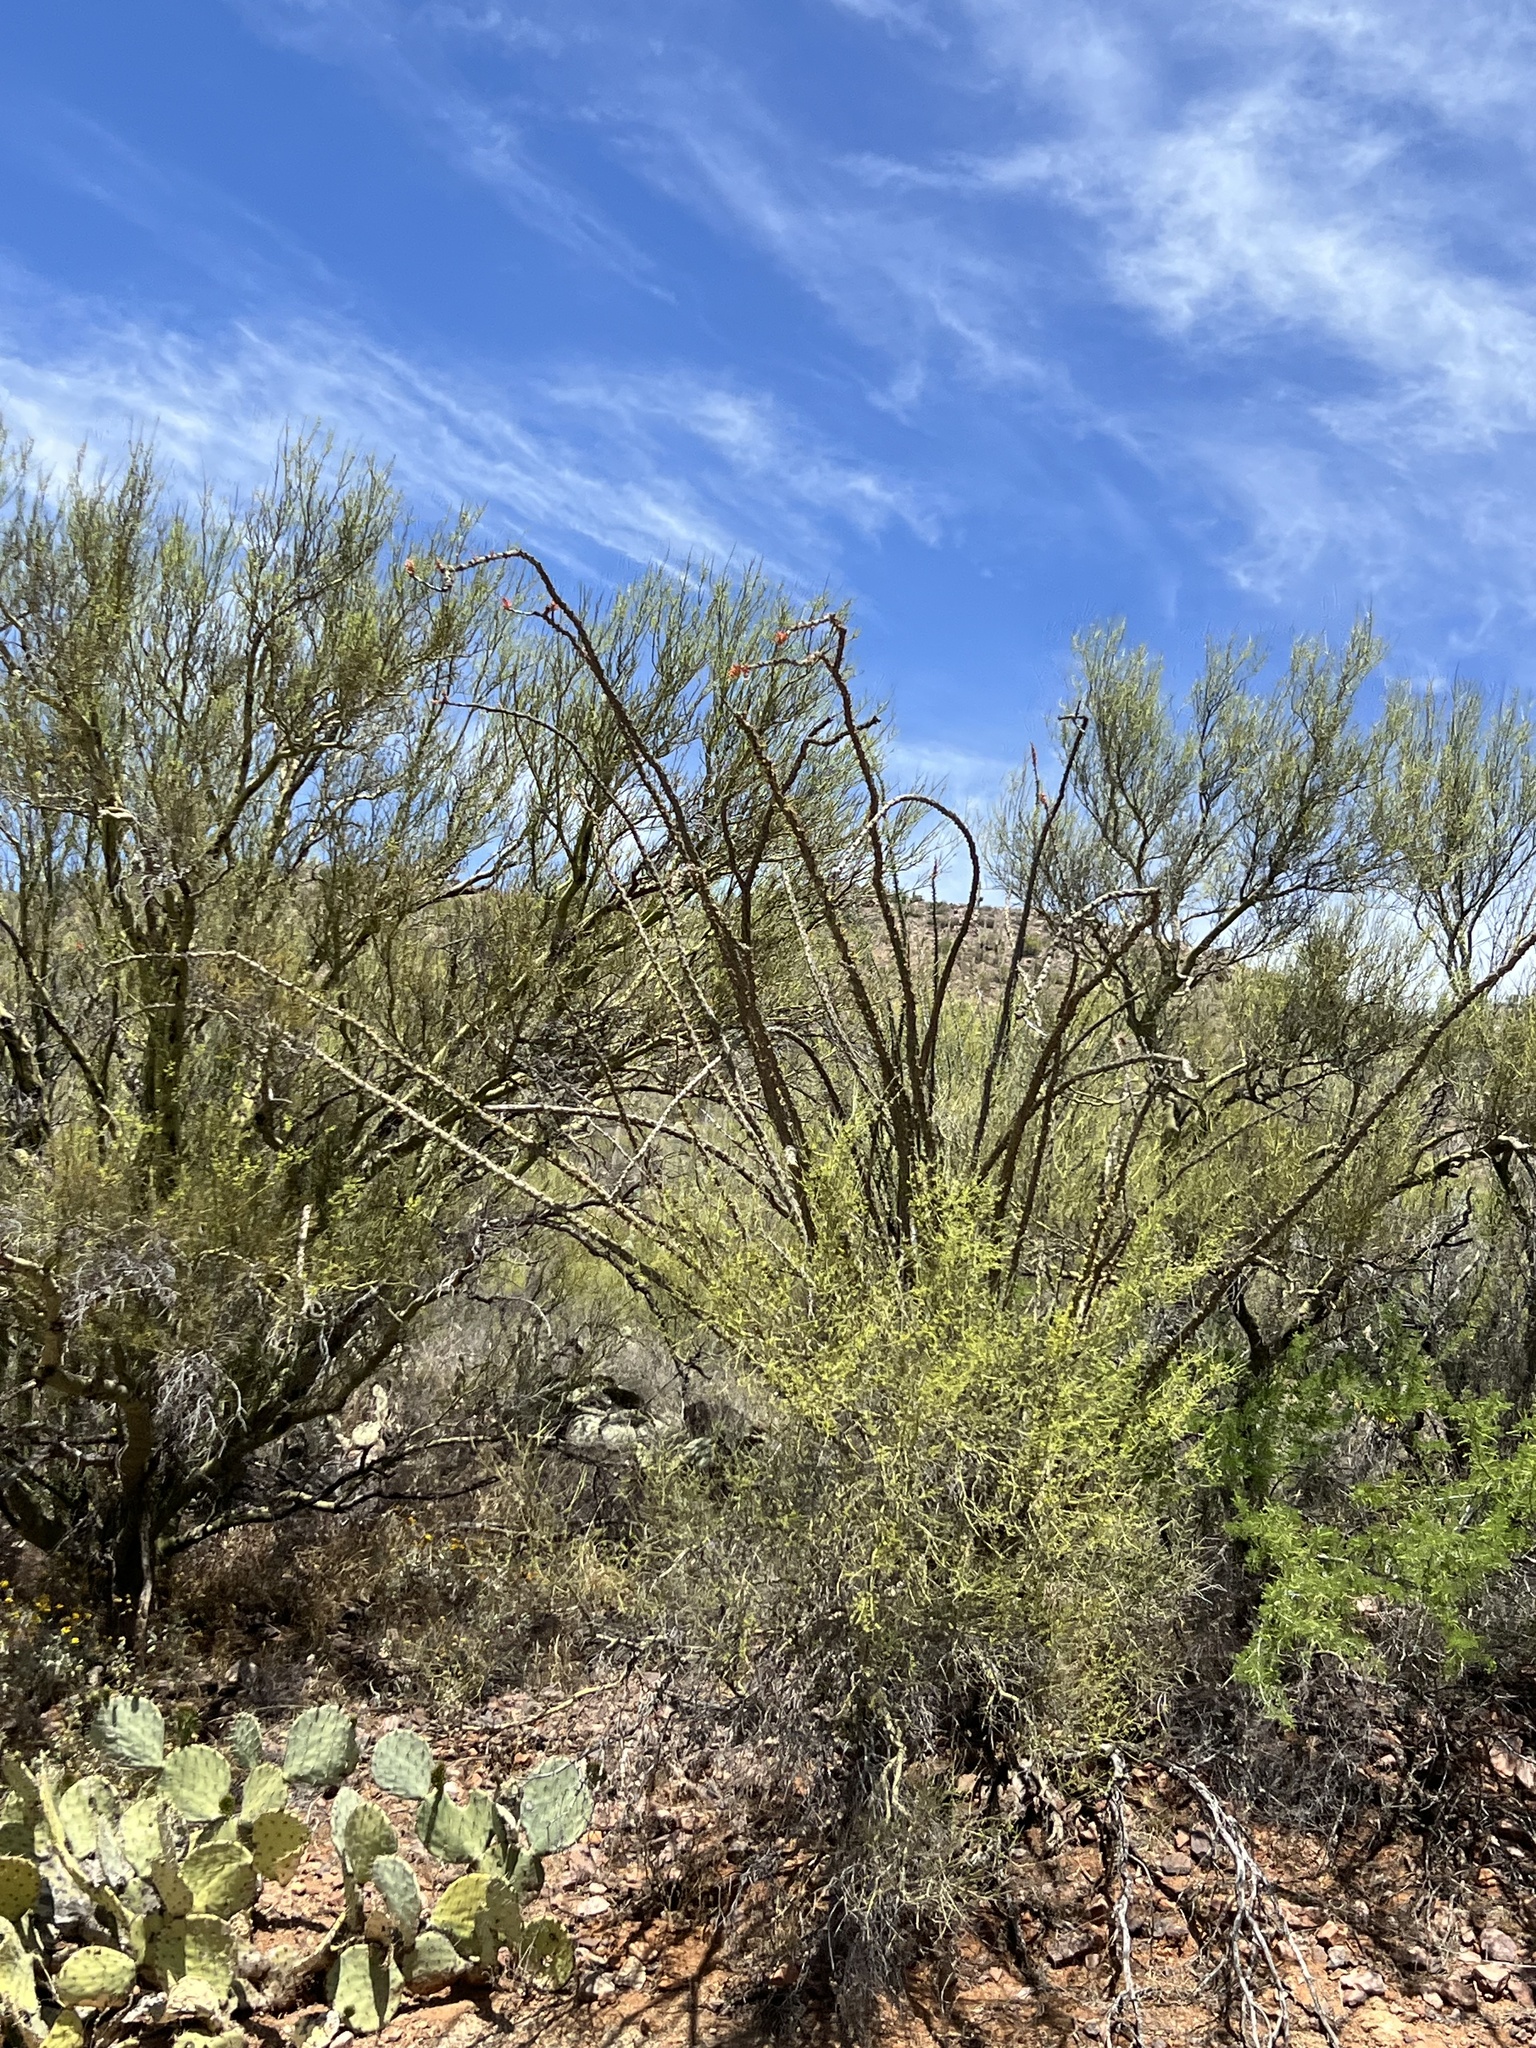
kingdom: Plantae
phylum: Tracheophyta
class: Magnoliopsida
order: Ericales
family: Fouquieriaceae
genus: Fouquieria
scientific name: Fouquieria splendens
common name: Vine-cactus
